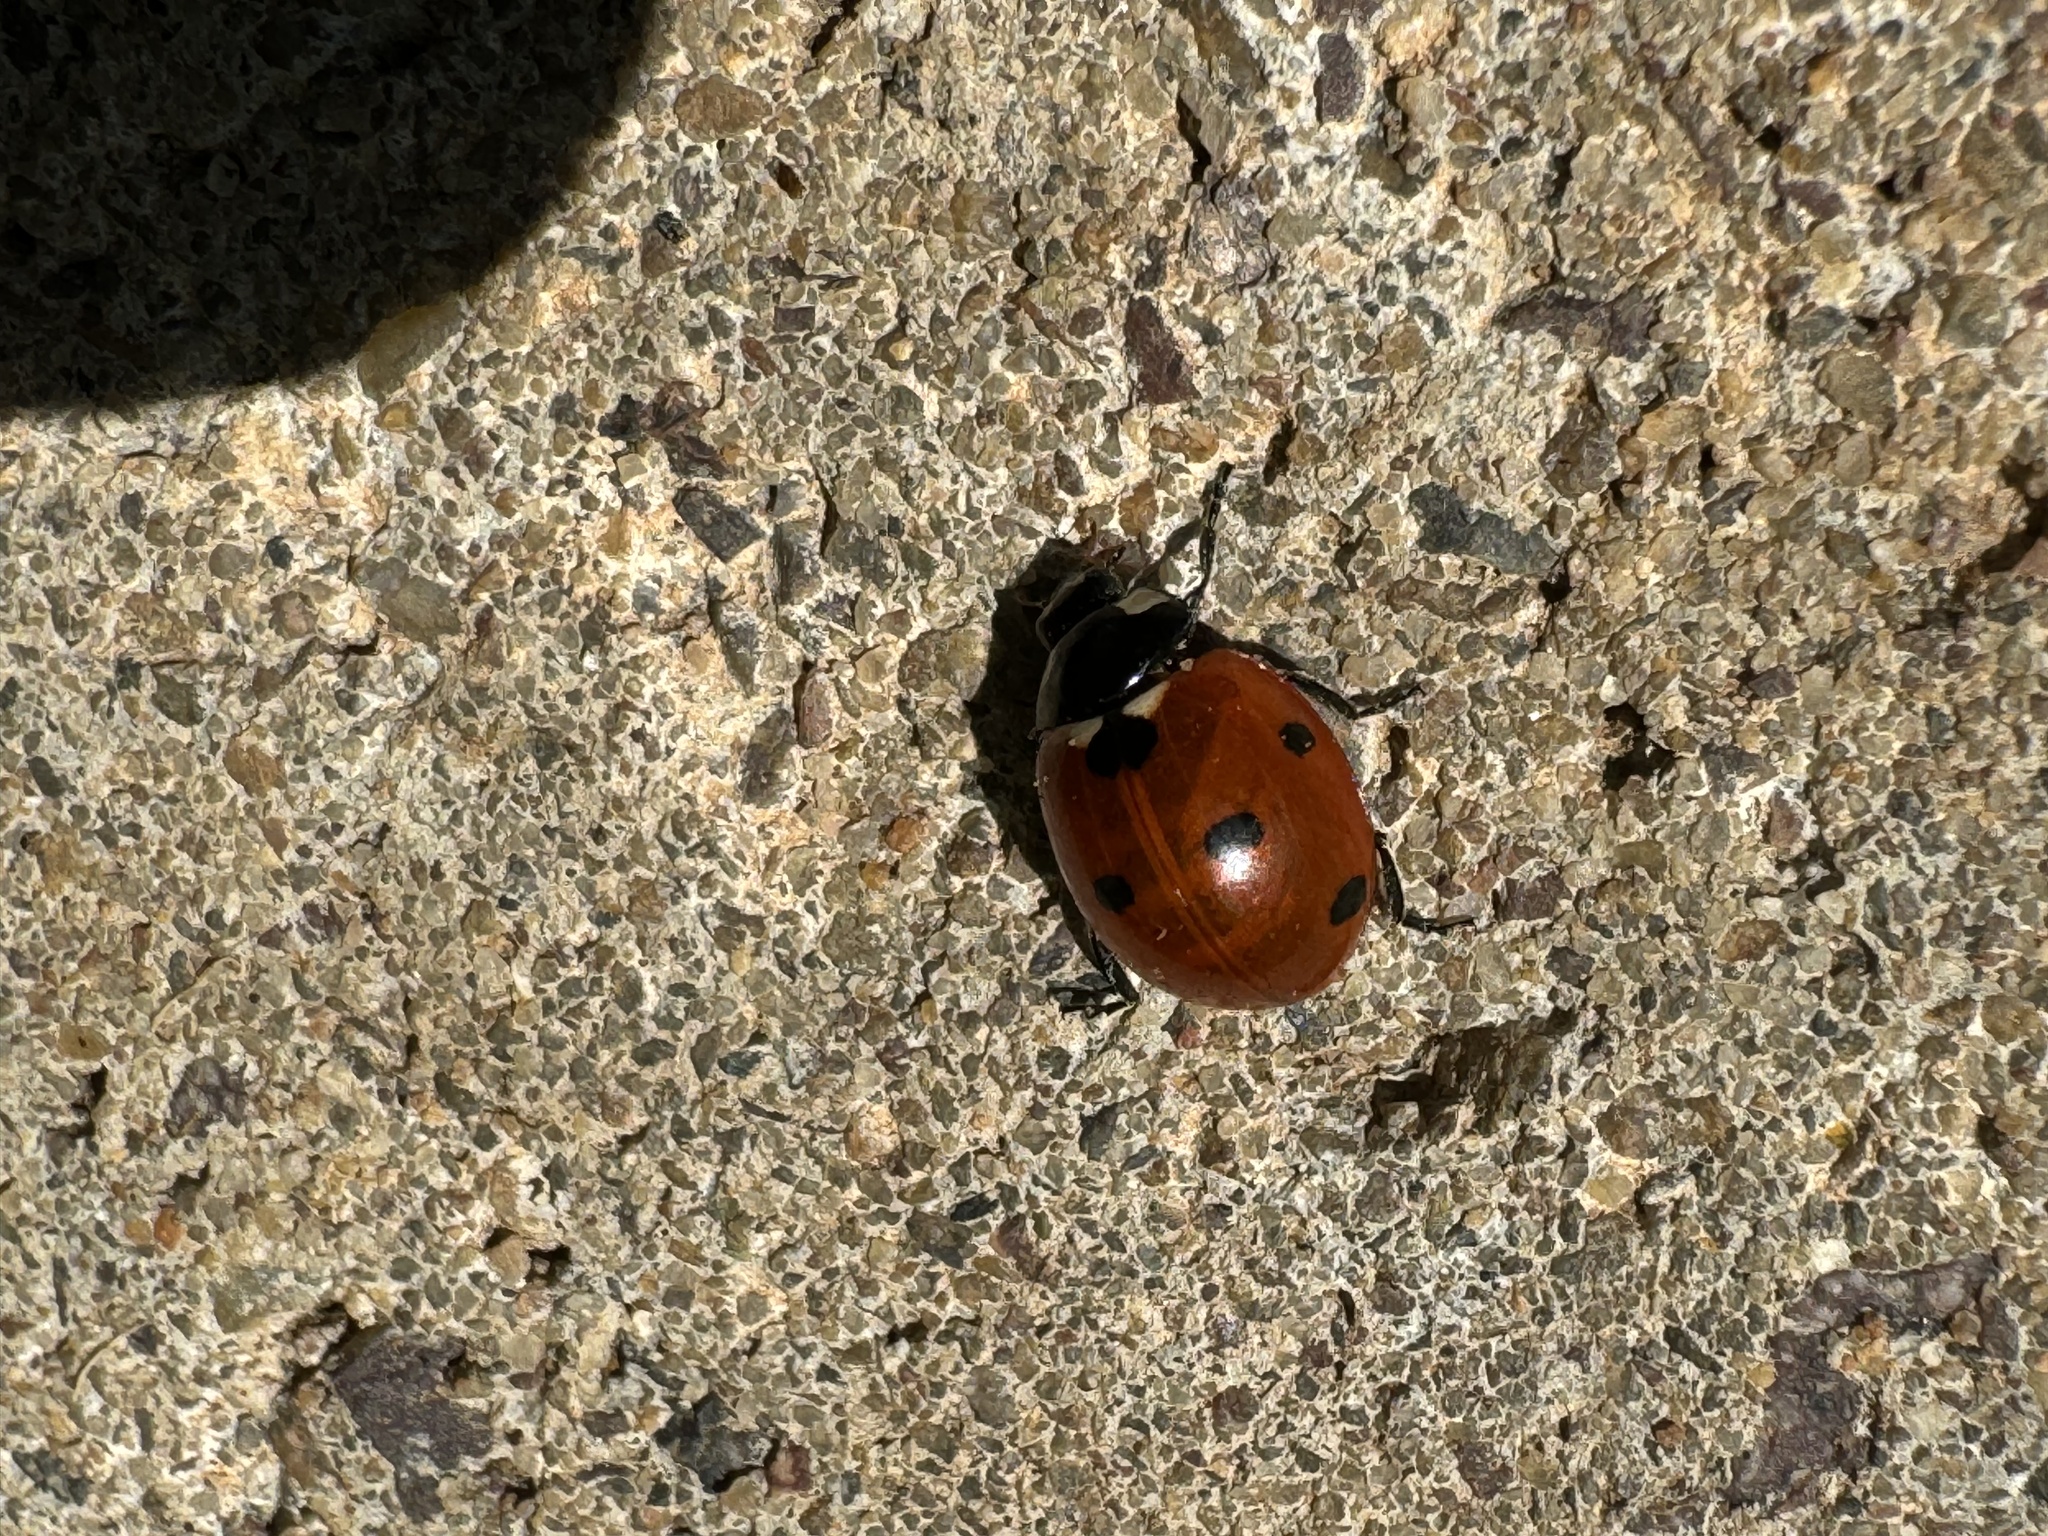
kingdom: Animalia
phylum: Arthropoda
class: Insecta
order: Coleoptera
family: Coccinellidae
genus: Coccinella
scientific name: Coccinella septempunctata
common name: Sevenspotted lady beetle
